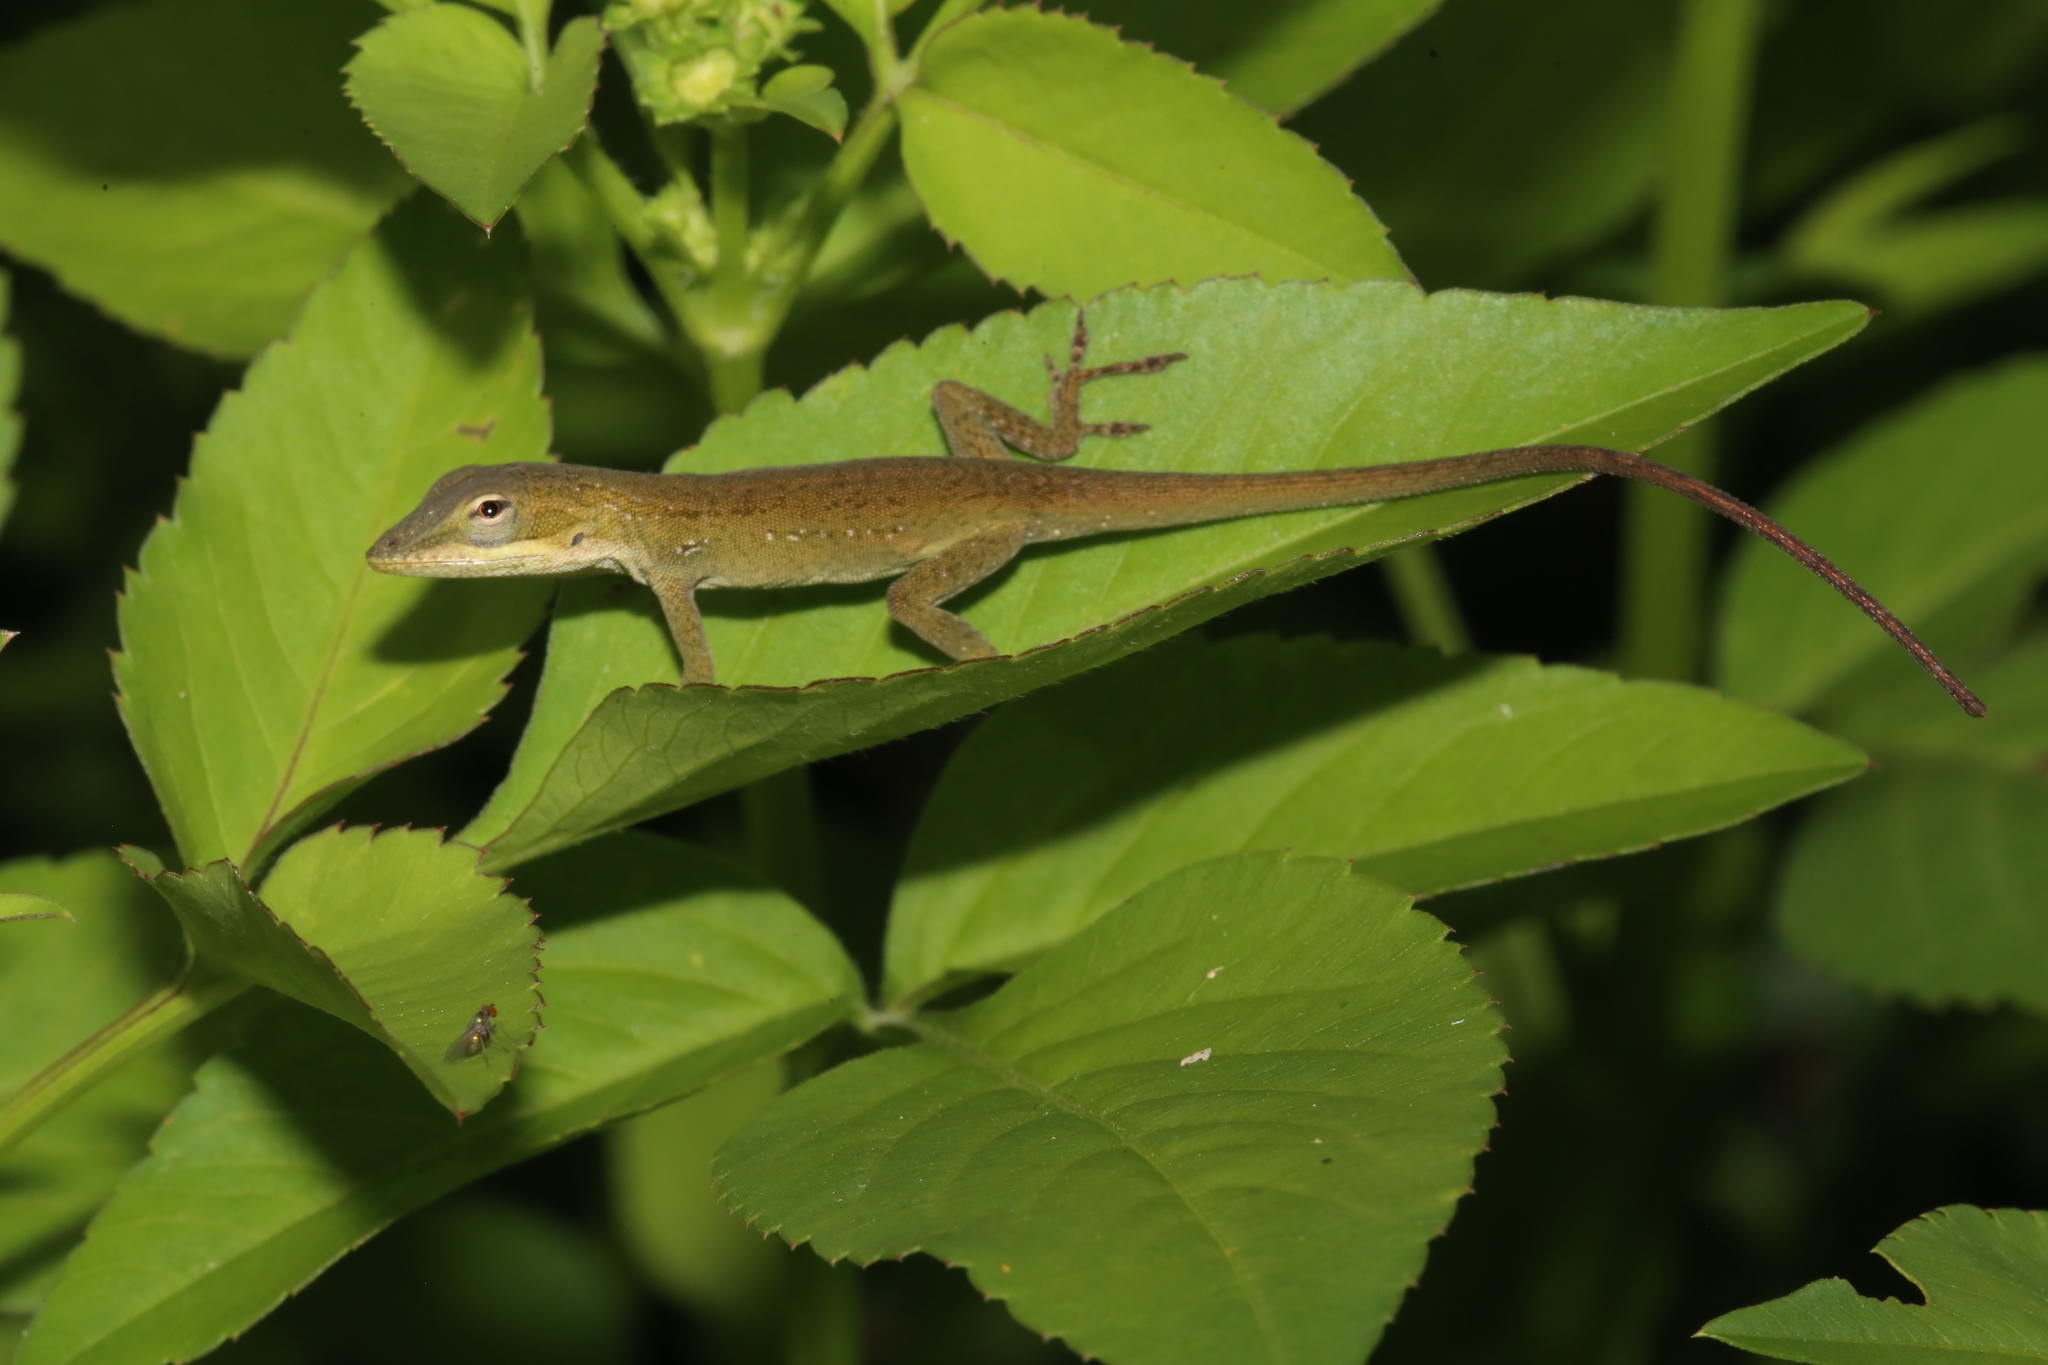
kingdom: Animalia
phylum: Chordata
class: Squamata
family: Dactyloidae
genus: Anolis
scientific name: Anolis carolinensis
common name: Green anole
